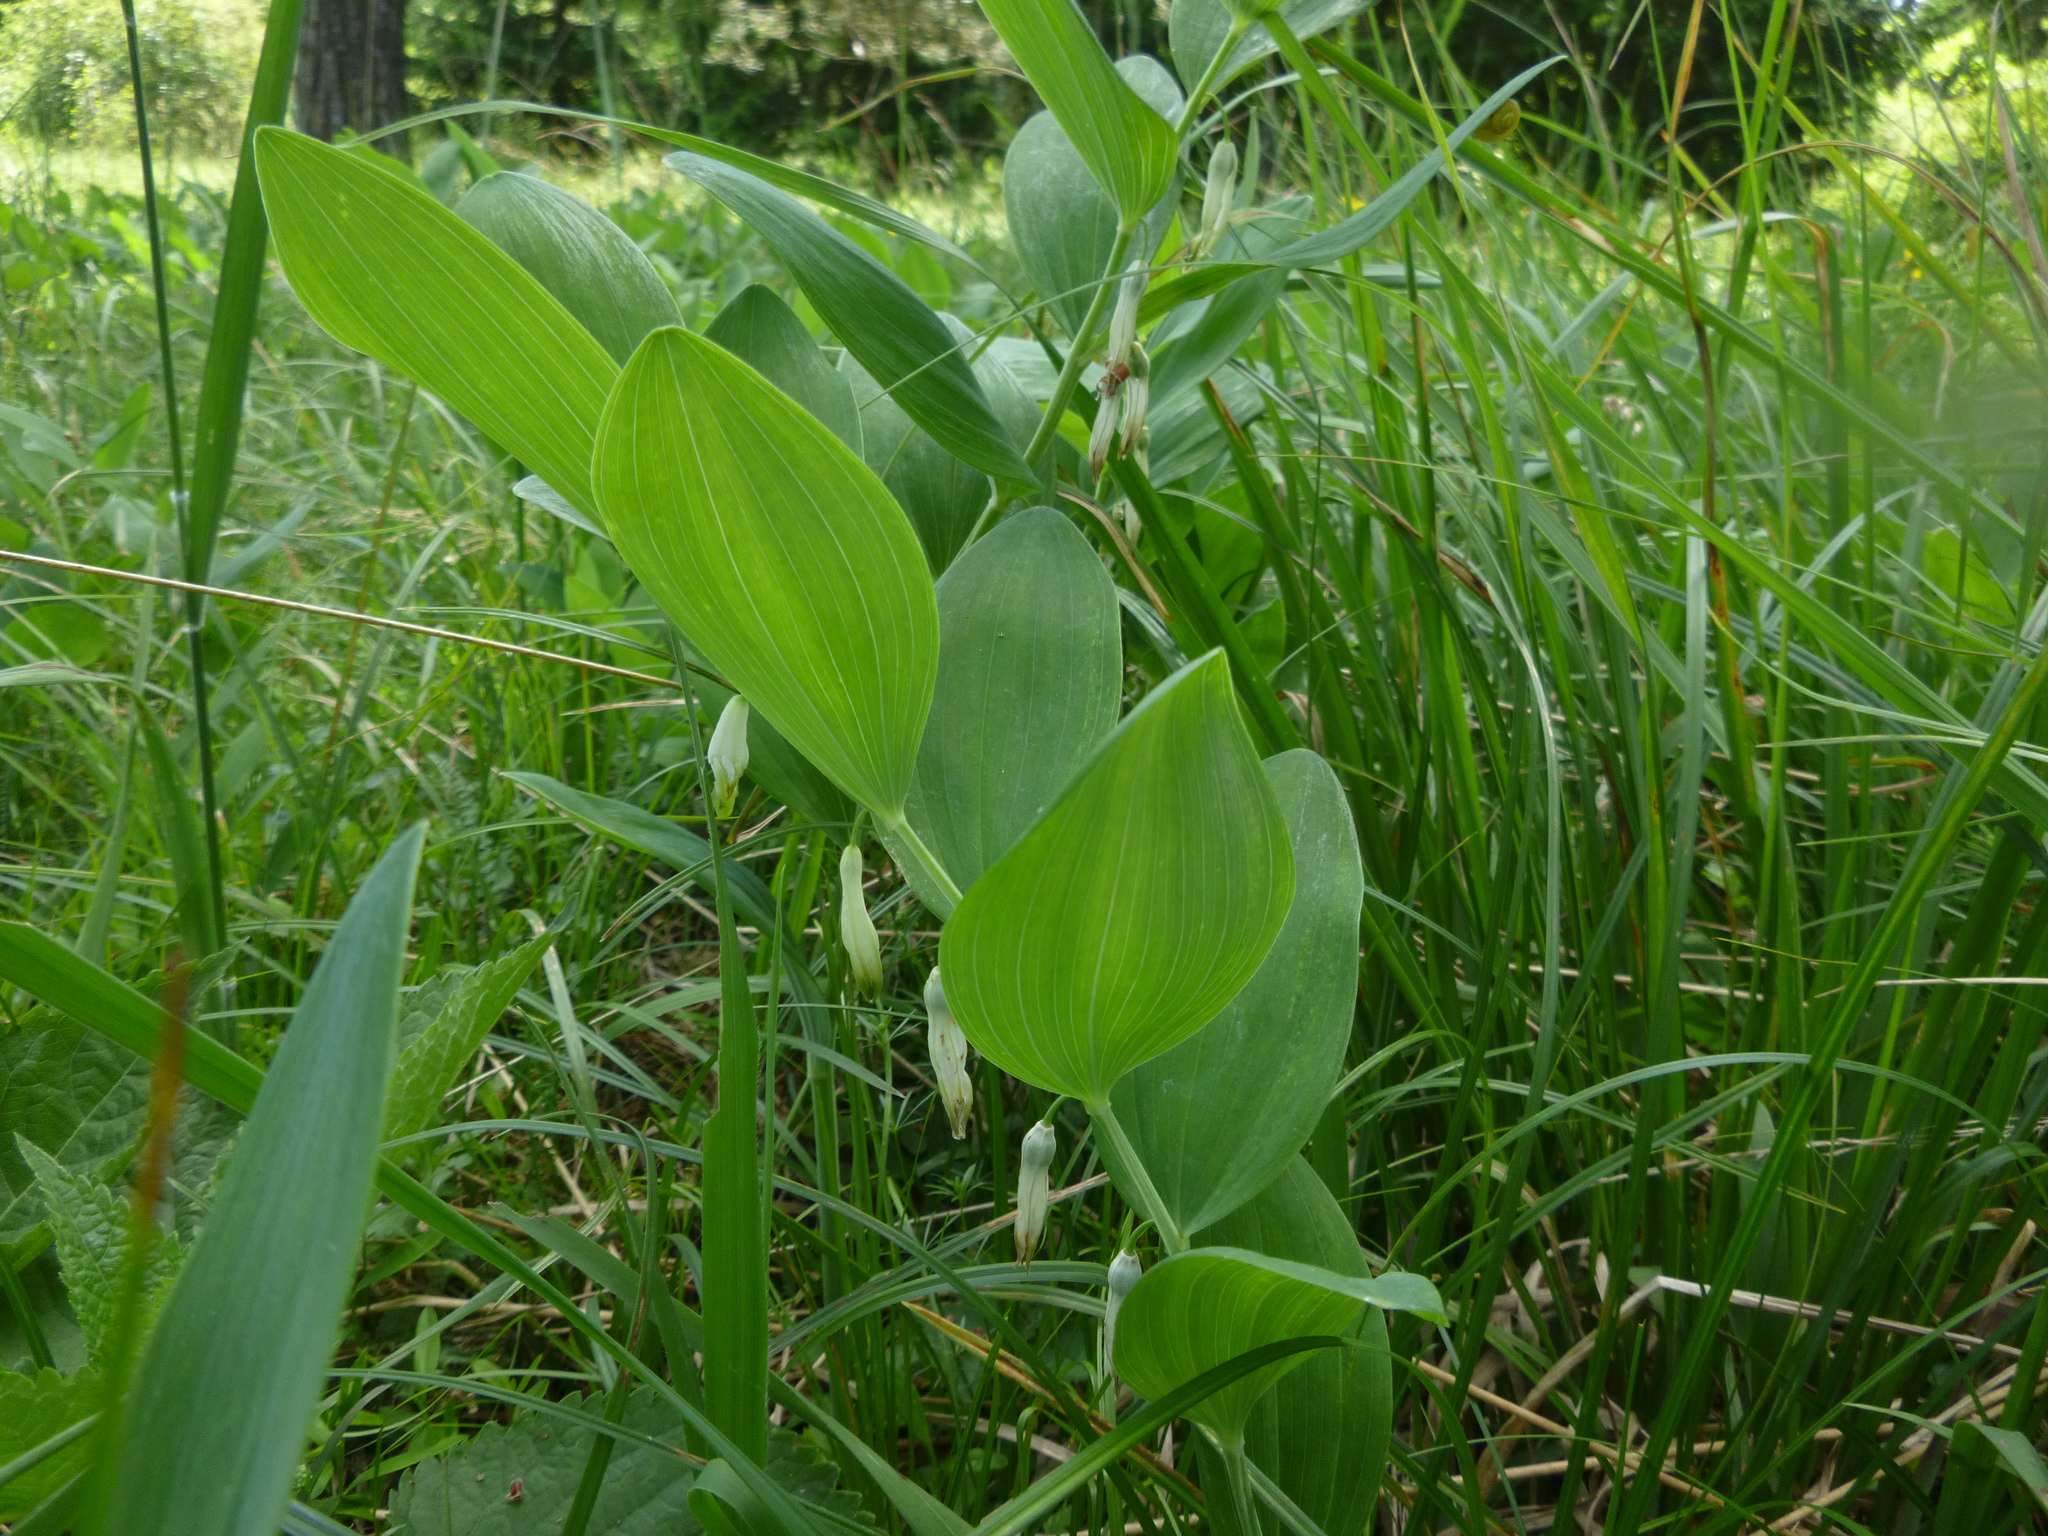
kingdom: Plantae
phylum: Tracheophyta
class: Liliopsida
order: Asparagales
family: Asparagaceae
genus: Polygonatum
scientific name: Polygonatum odoratum
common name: Angular solomon's-seal
